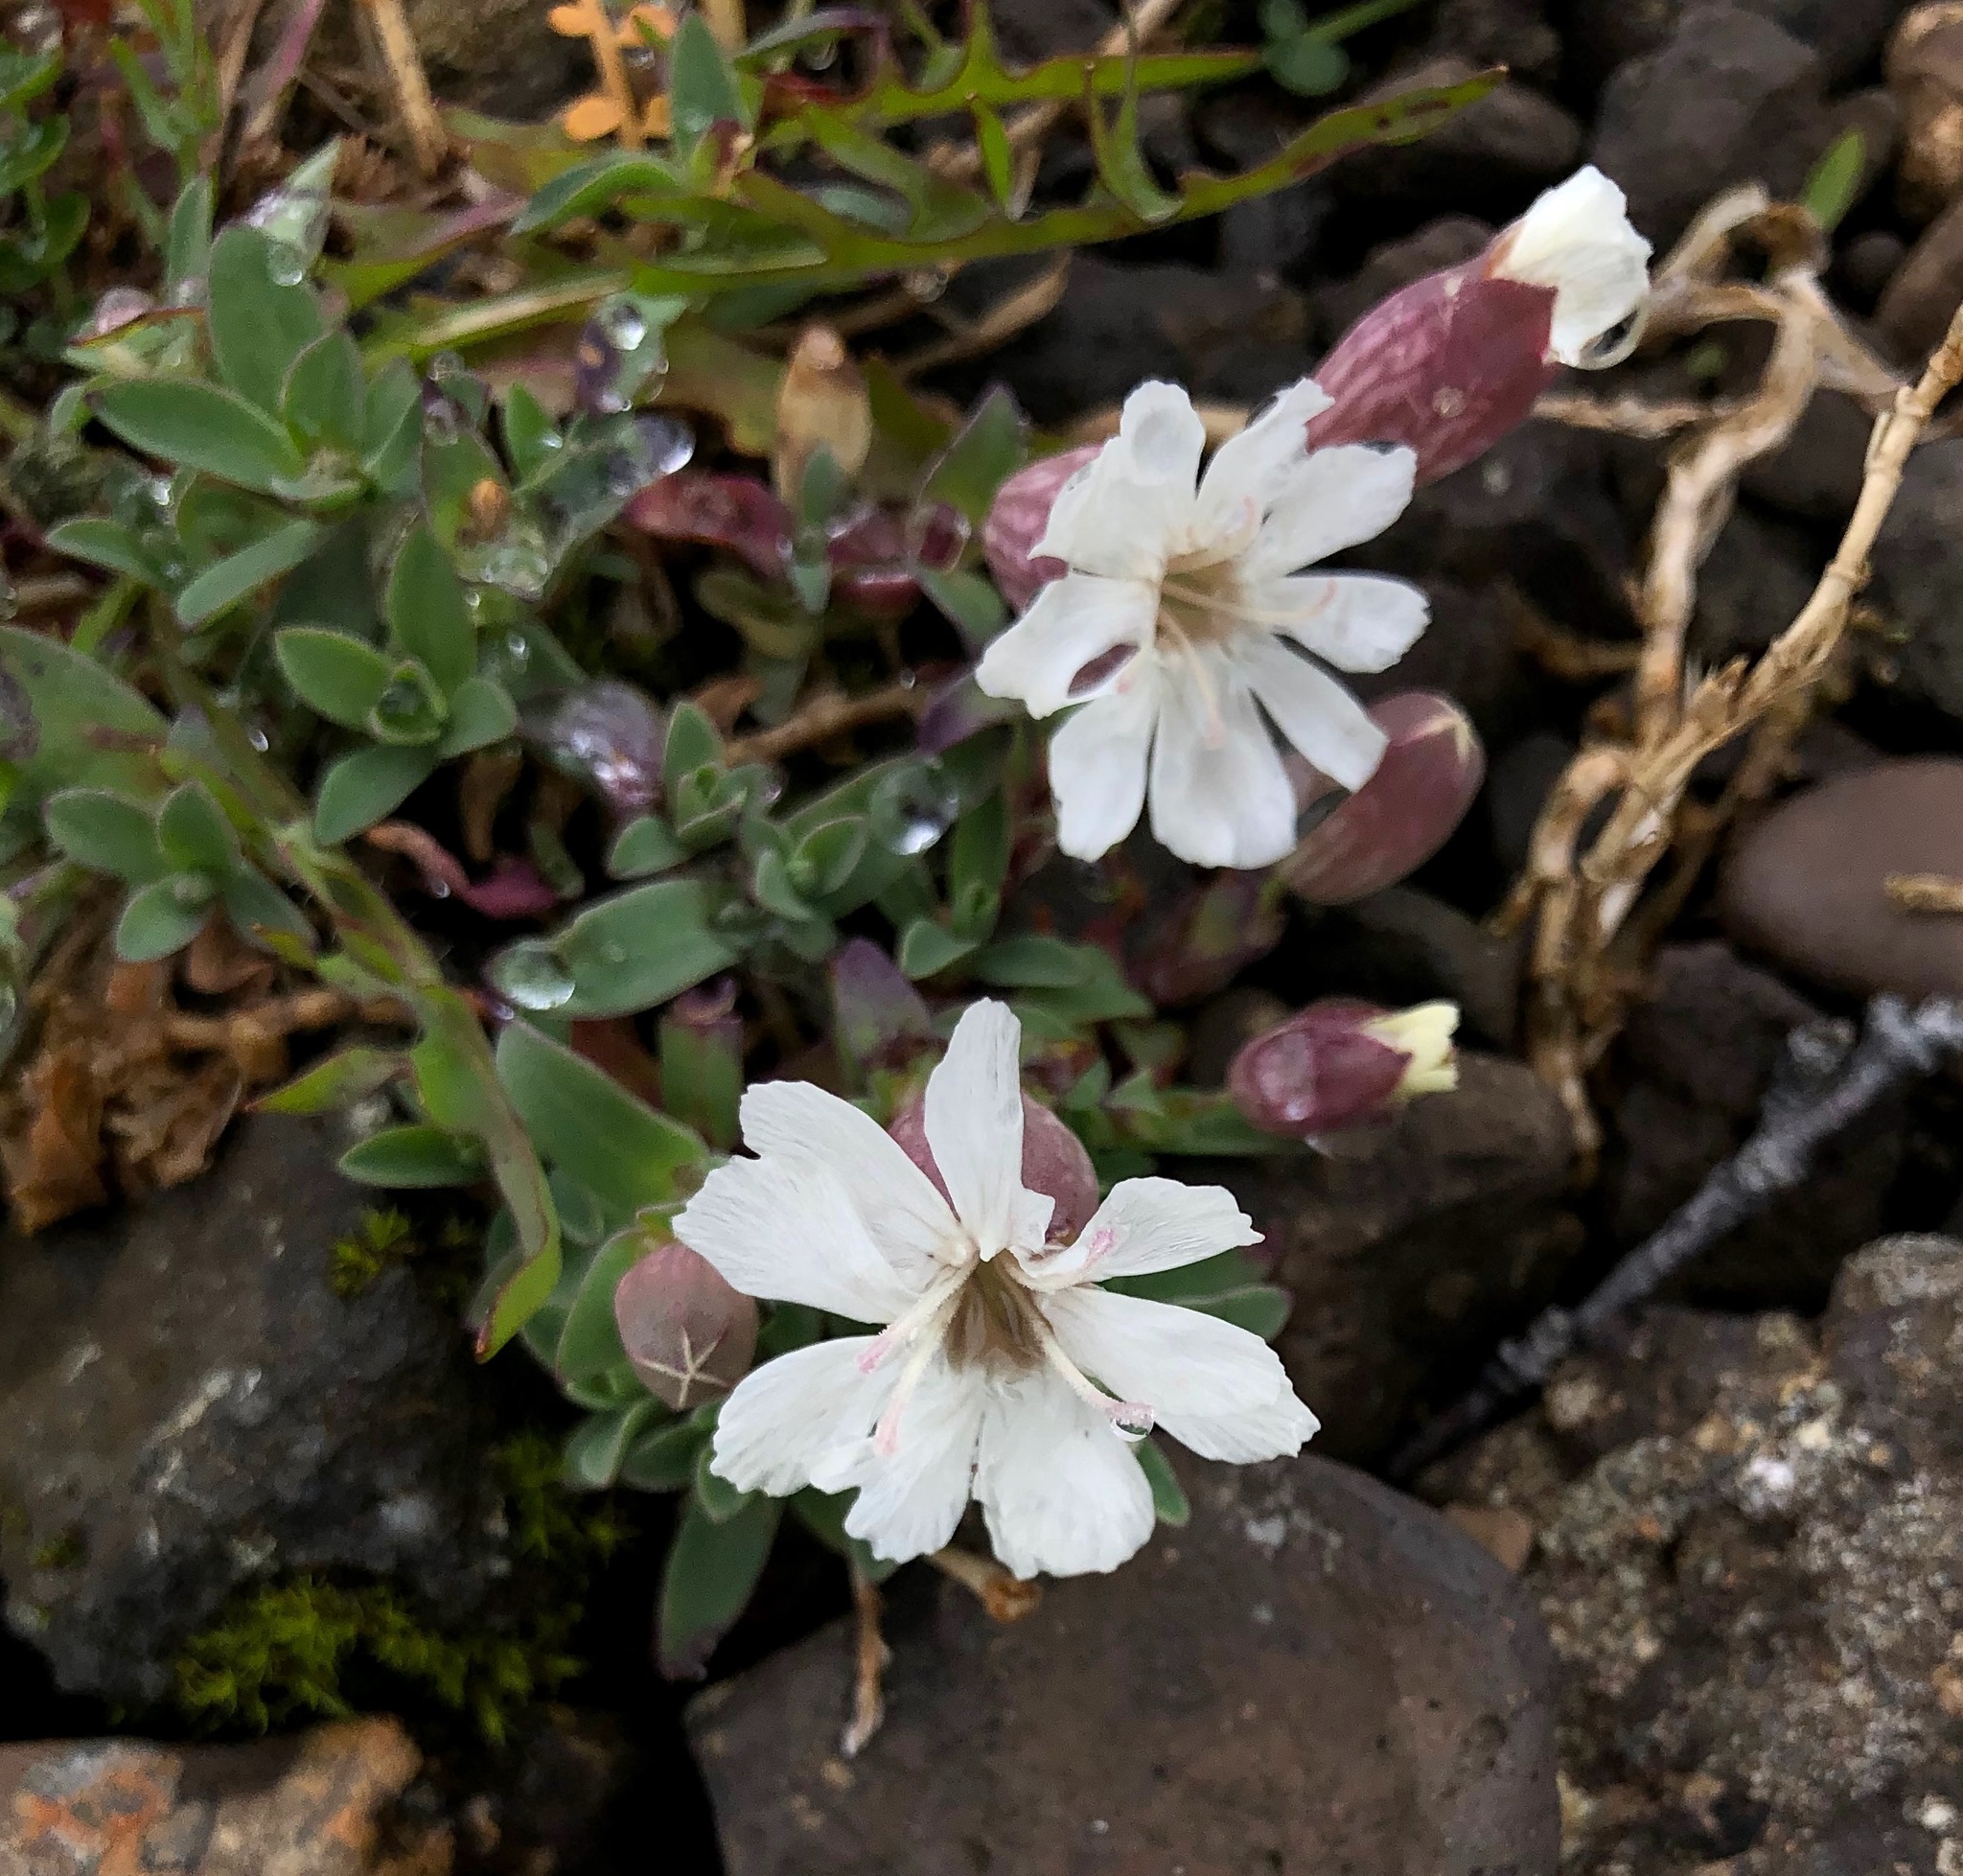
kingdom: Plantae
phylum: Tracheophyta
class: Magnoliopsida
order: Caryophyllales
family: Caryophyllaceae
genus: Silene
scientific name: Silene uniflora
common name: Sea campion
